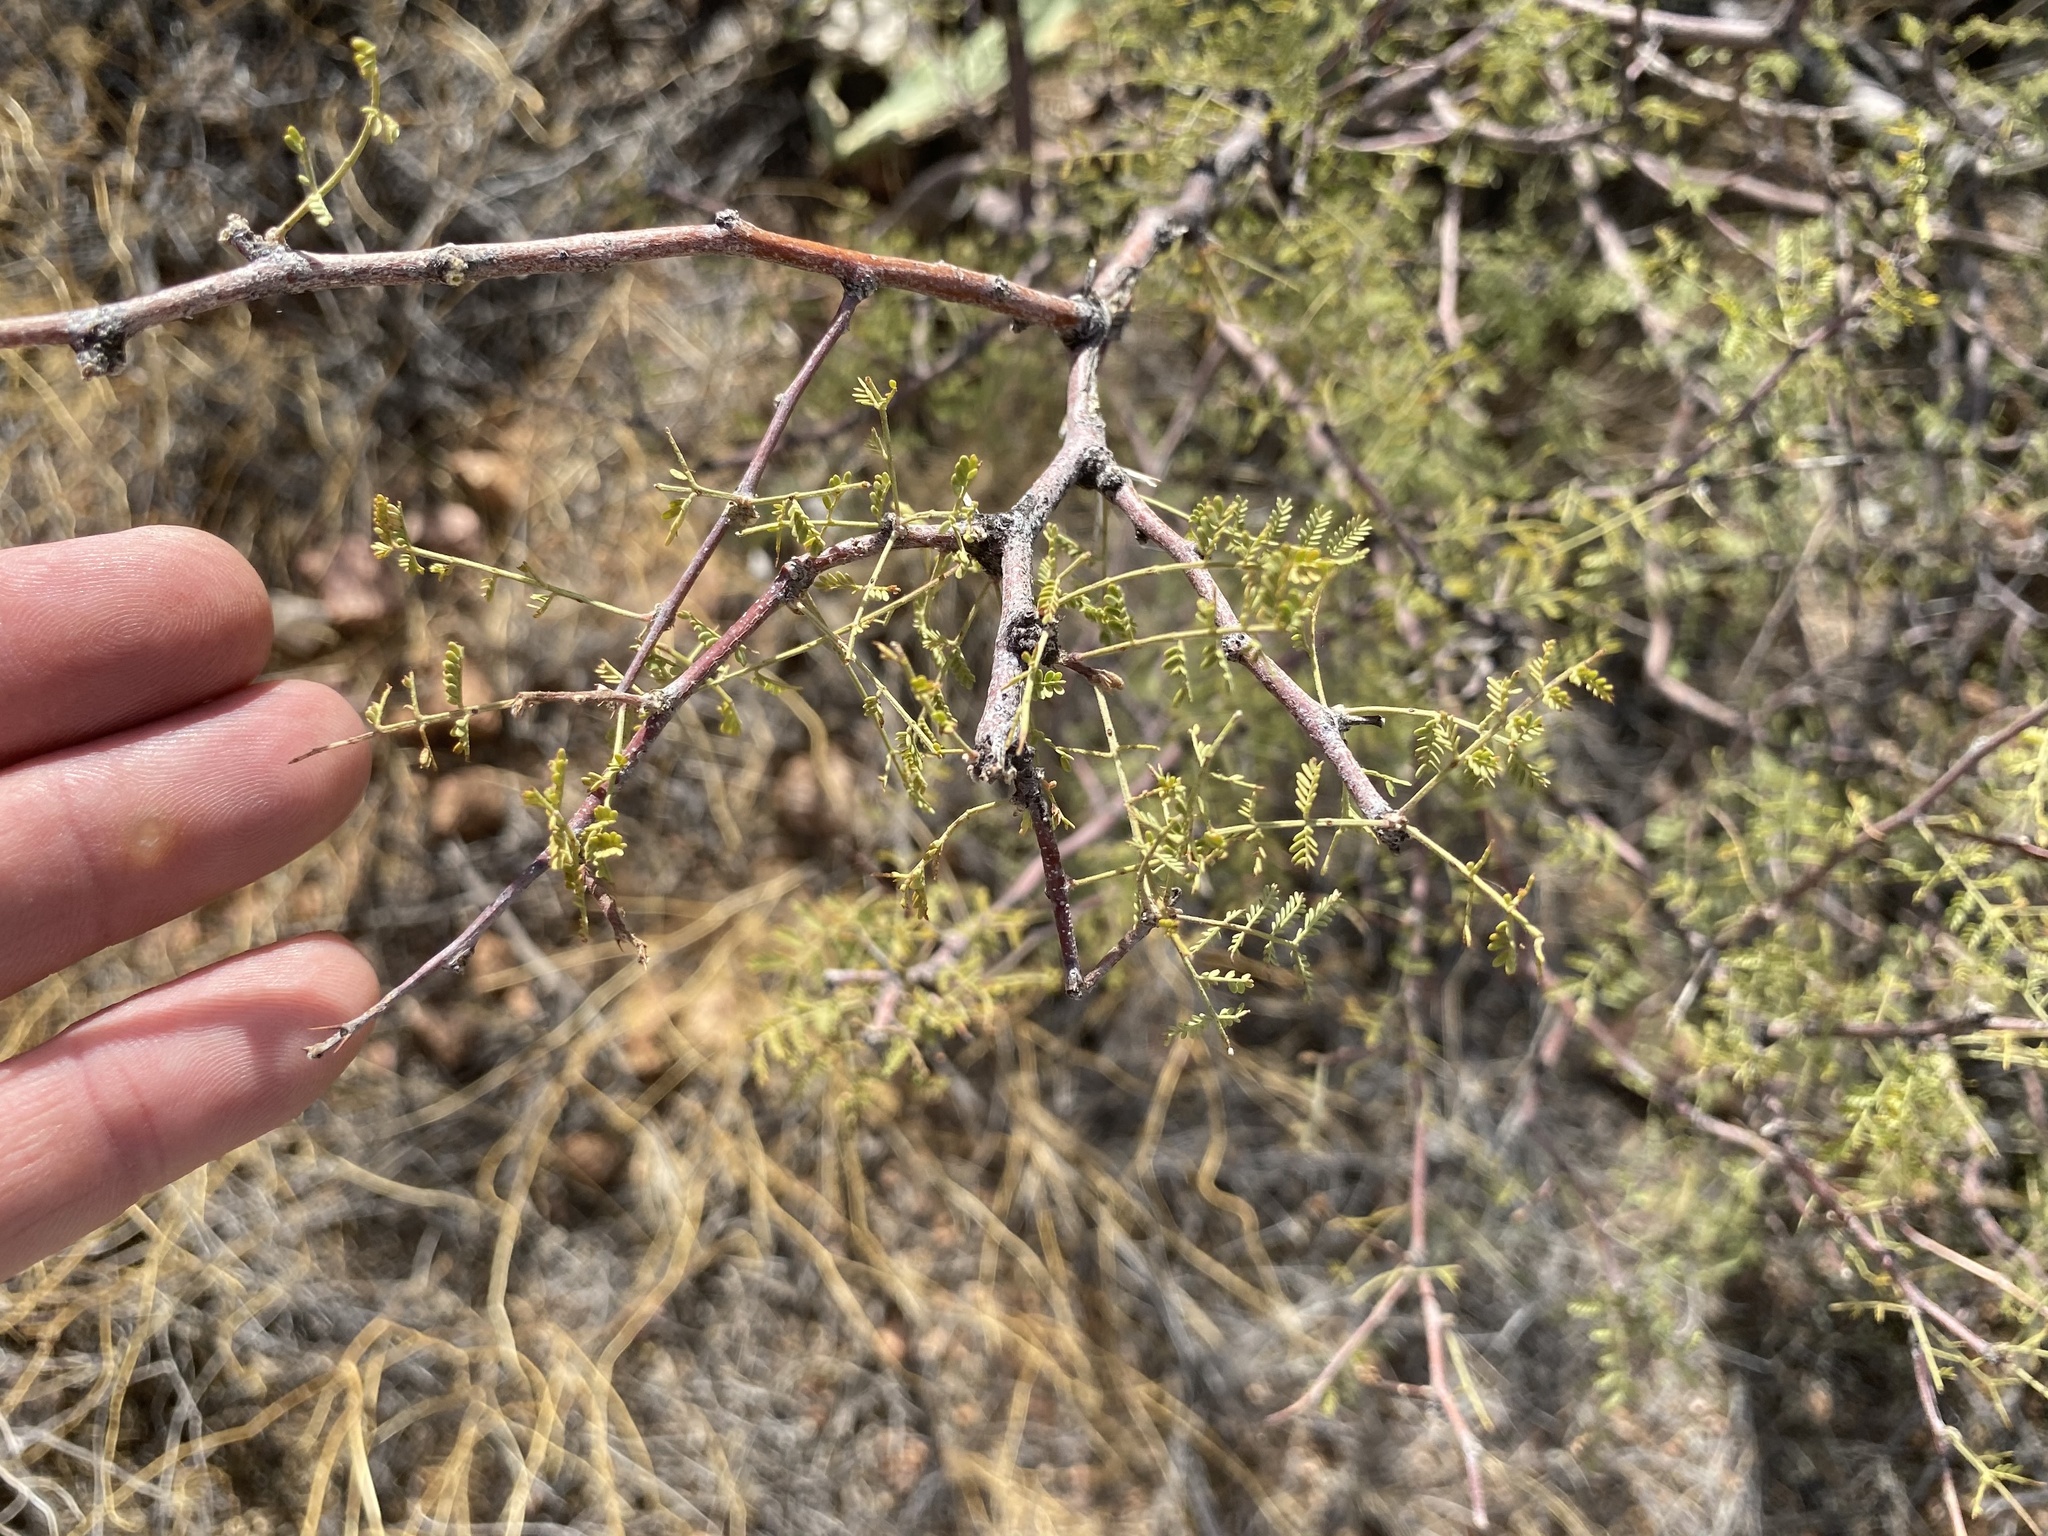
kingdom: Plantae
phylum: Tracheophyta
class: Magnoliopsida
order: Fabales
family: Fabaceae
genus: Vachellia
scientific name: Vachellia constricta
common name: Mescat acacia
